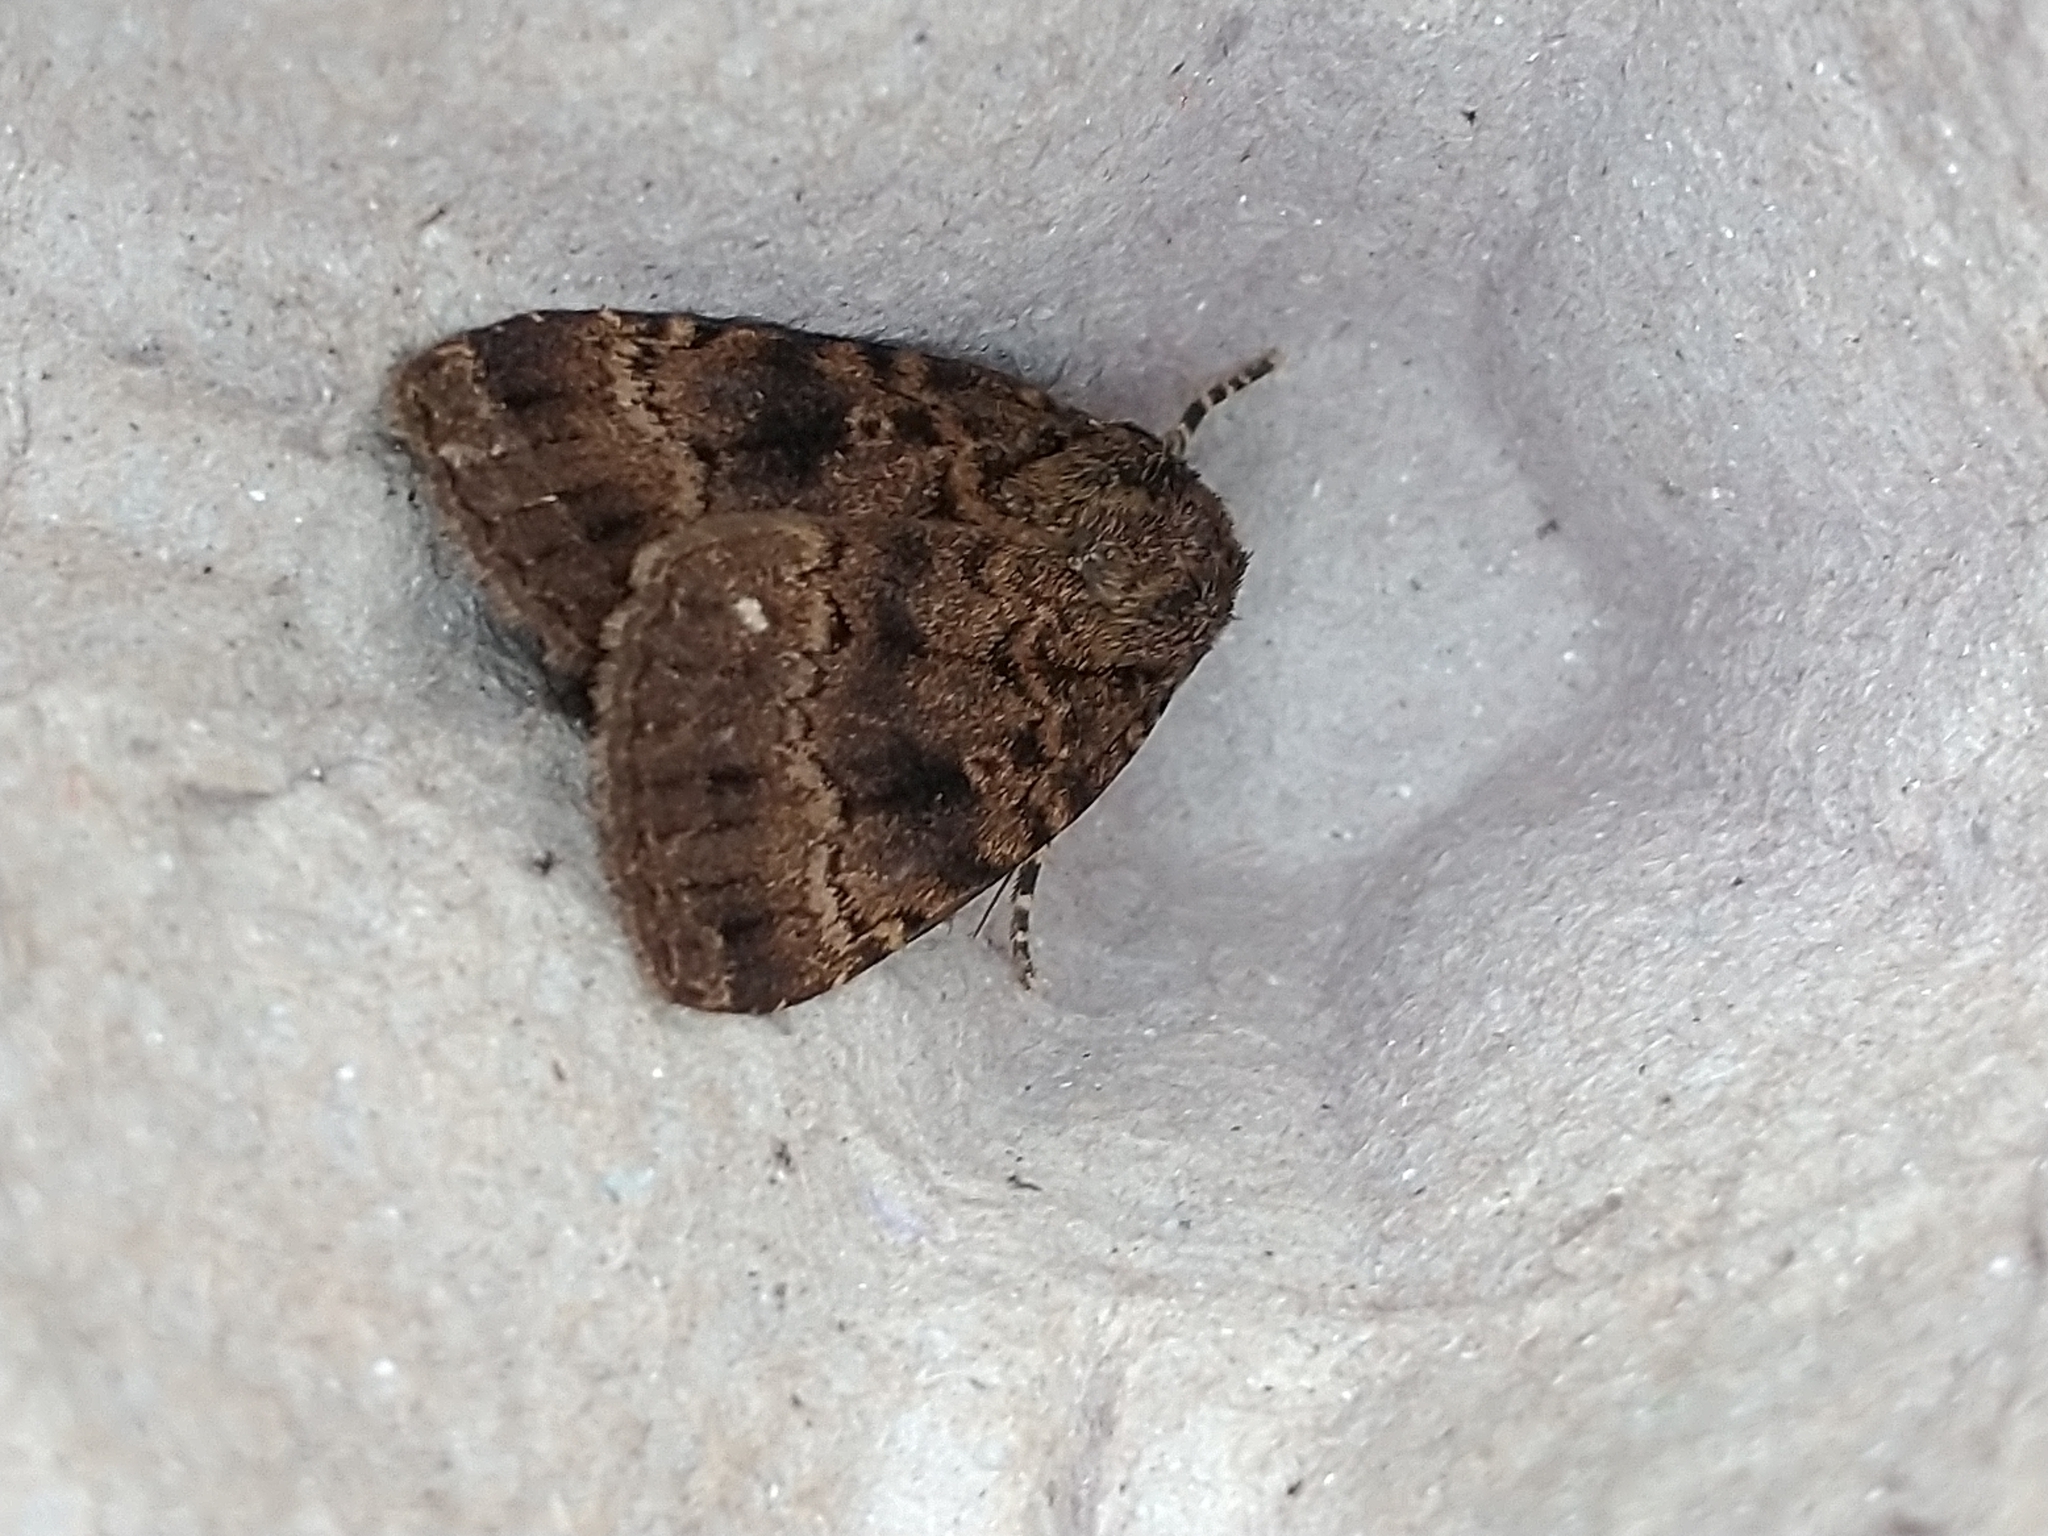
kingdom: Animalia
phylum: Arthropoda
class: Insecta
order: Lepidoptera
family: Noctuidae
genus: Amphipyra
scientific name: Amphipyra pyramidea
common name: Copper underwing
